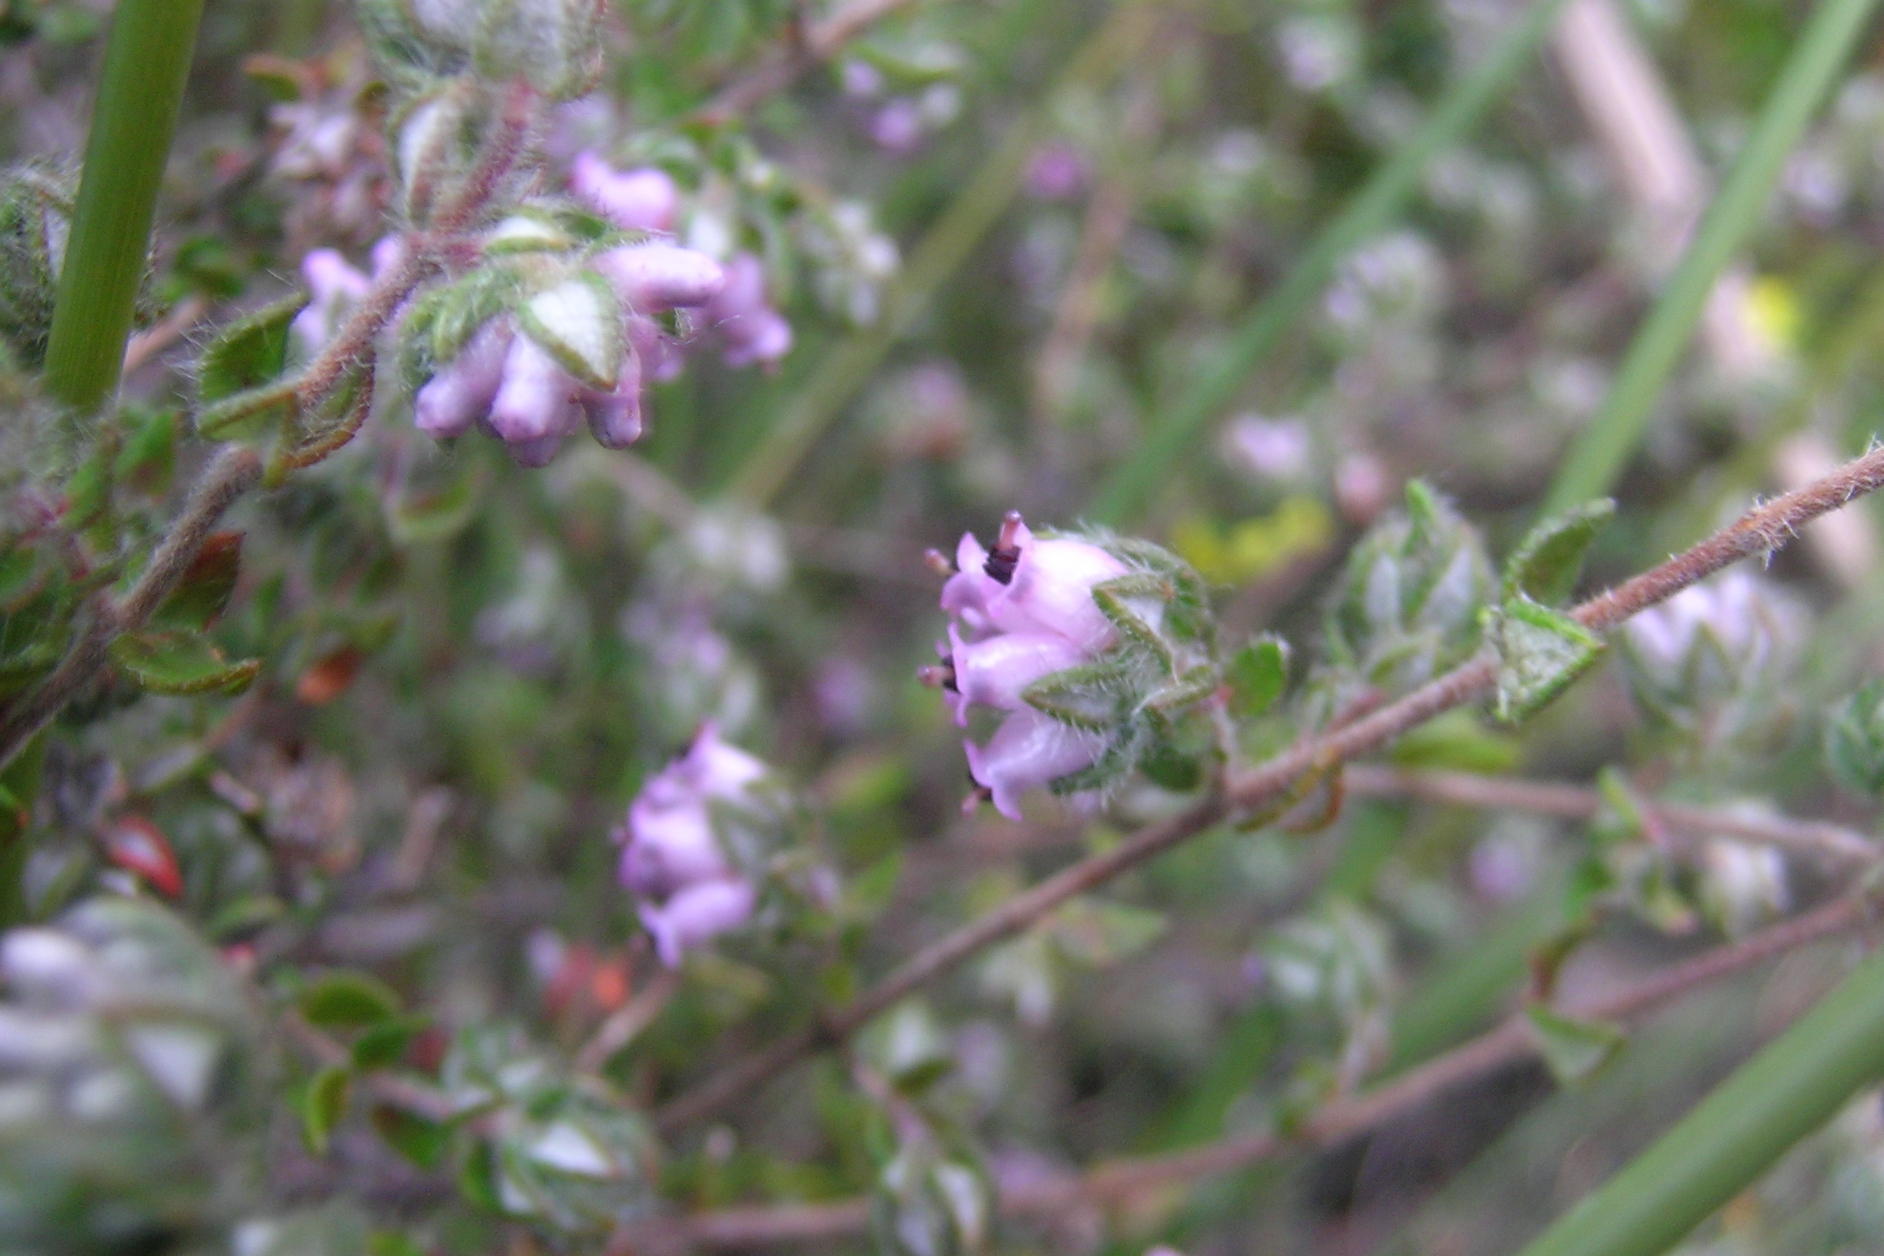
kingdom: Plantae
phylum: Tracheophyta
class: Magnoliopsida
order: Ericales
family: Ericaceae
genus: Erica
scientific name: Erica cordata
